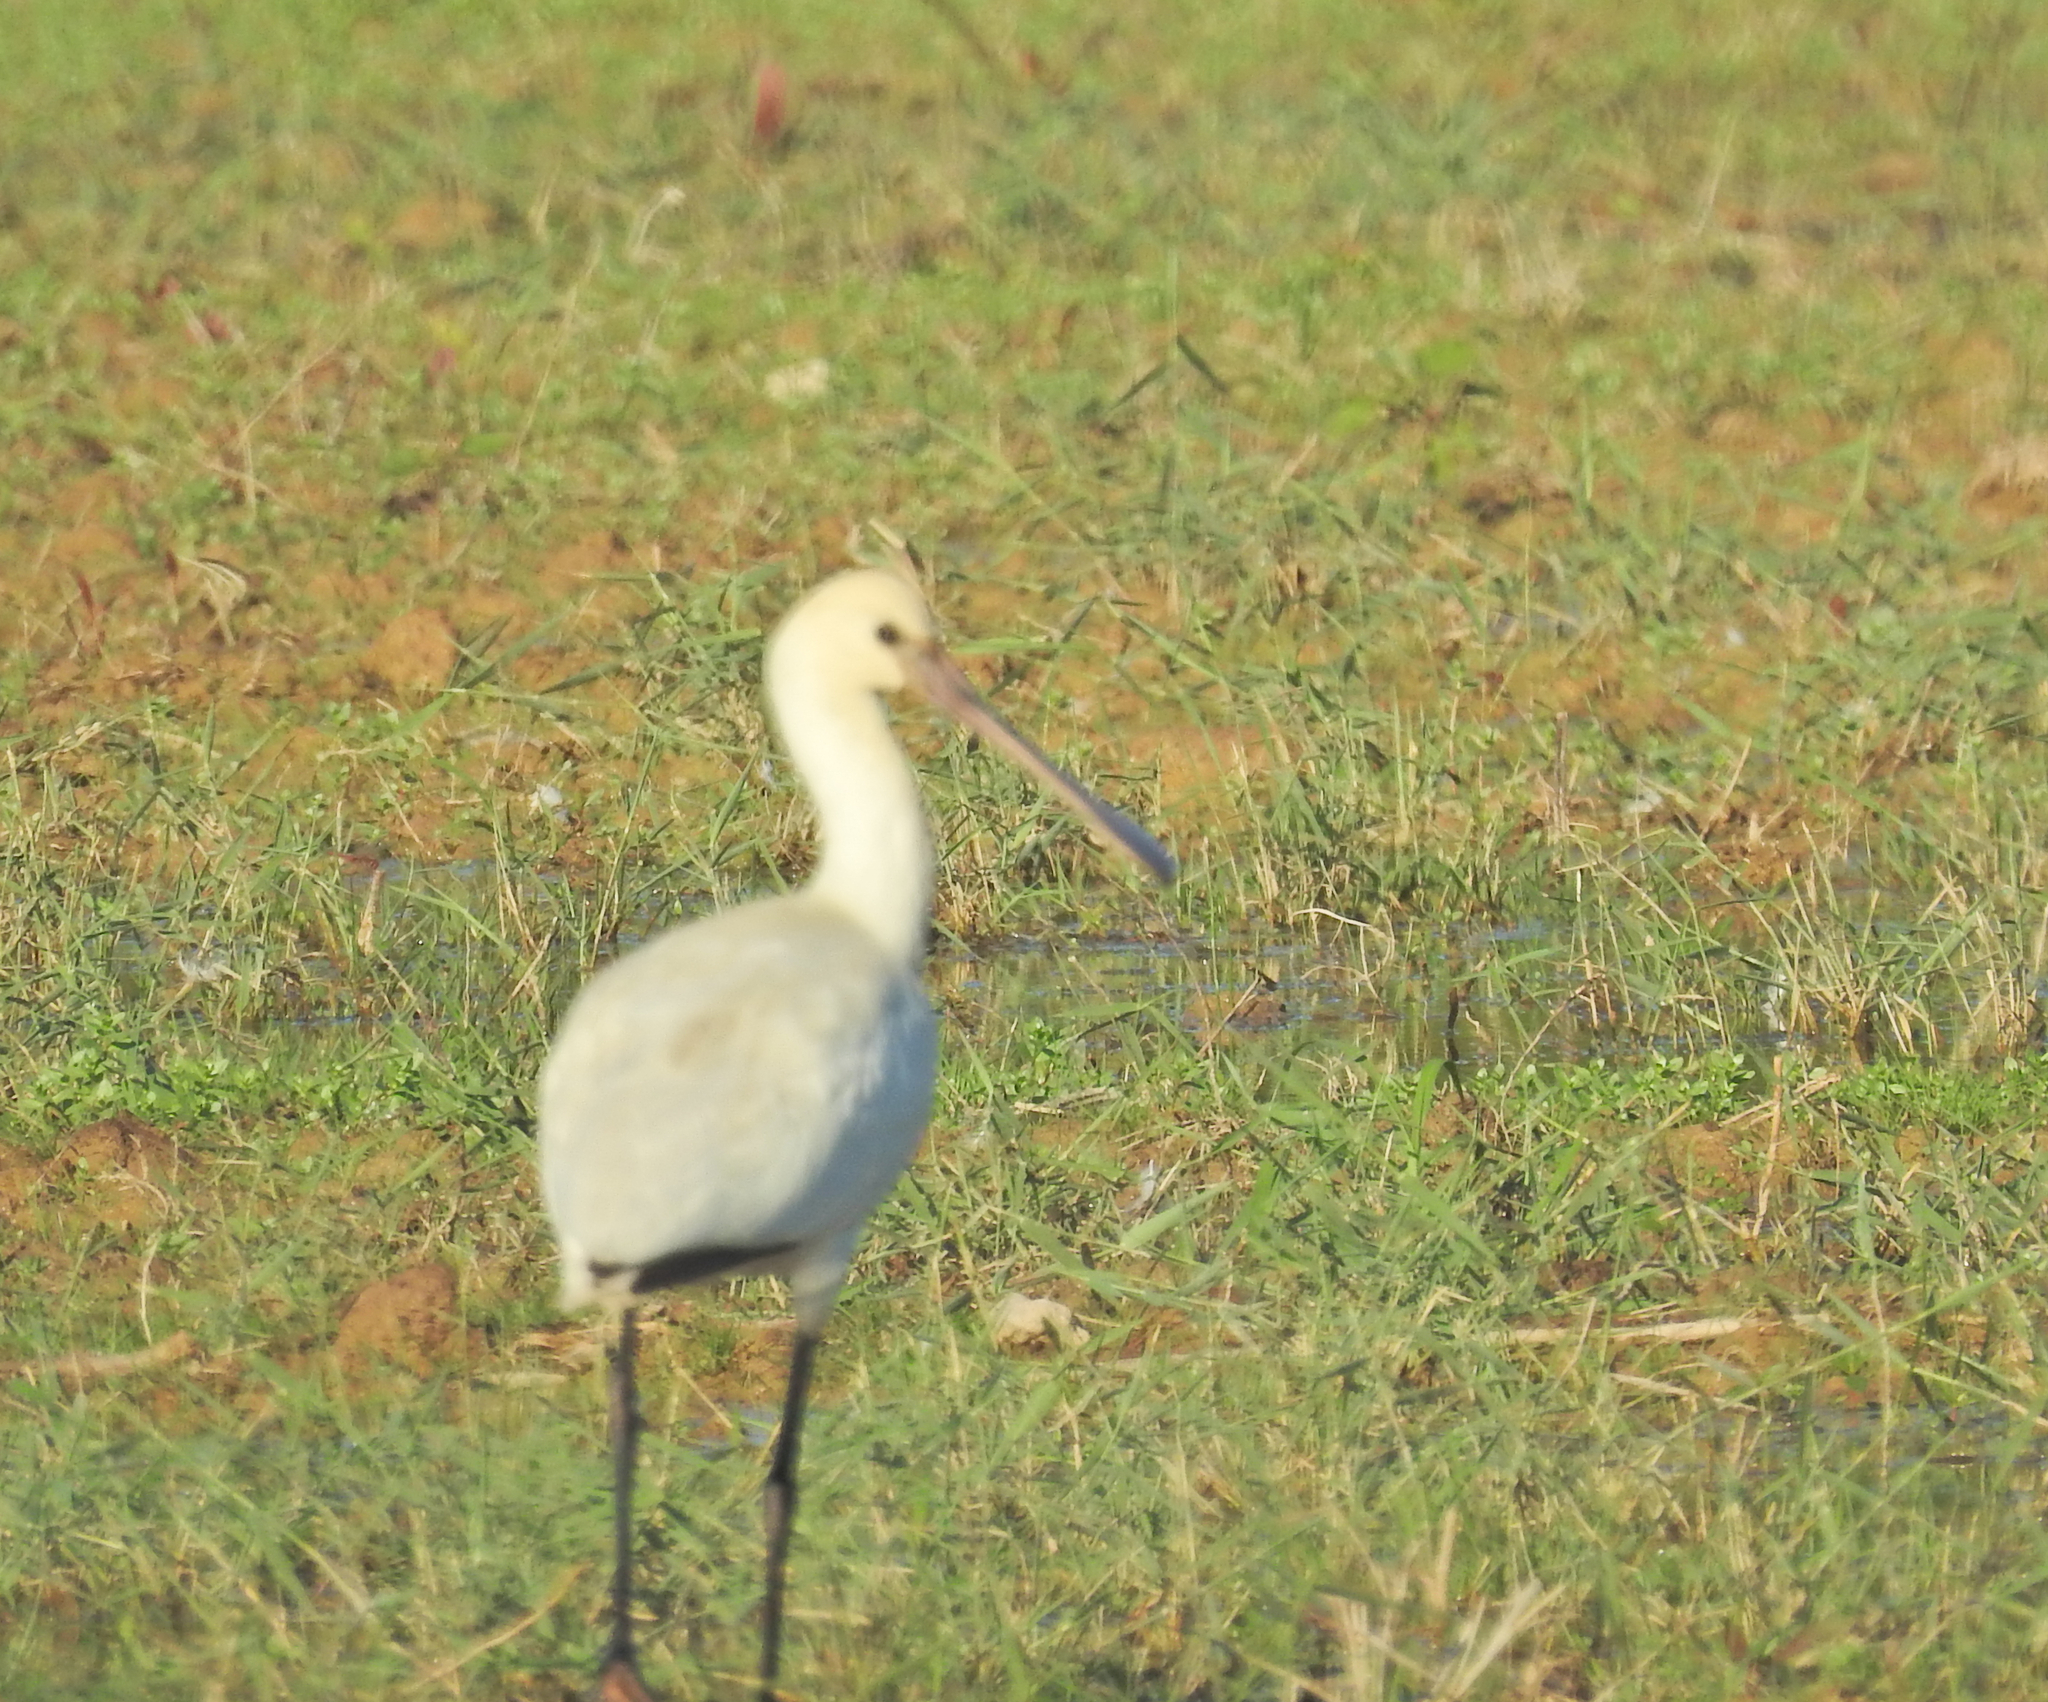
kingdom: Animalia
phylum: Chordata
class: Aves
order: Pelecaniformes
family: Threskiornithidae
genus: Platalea
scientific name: Platalea leucorodia
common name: Eurasian spoonbill
